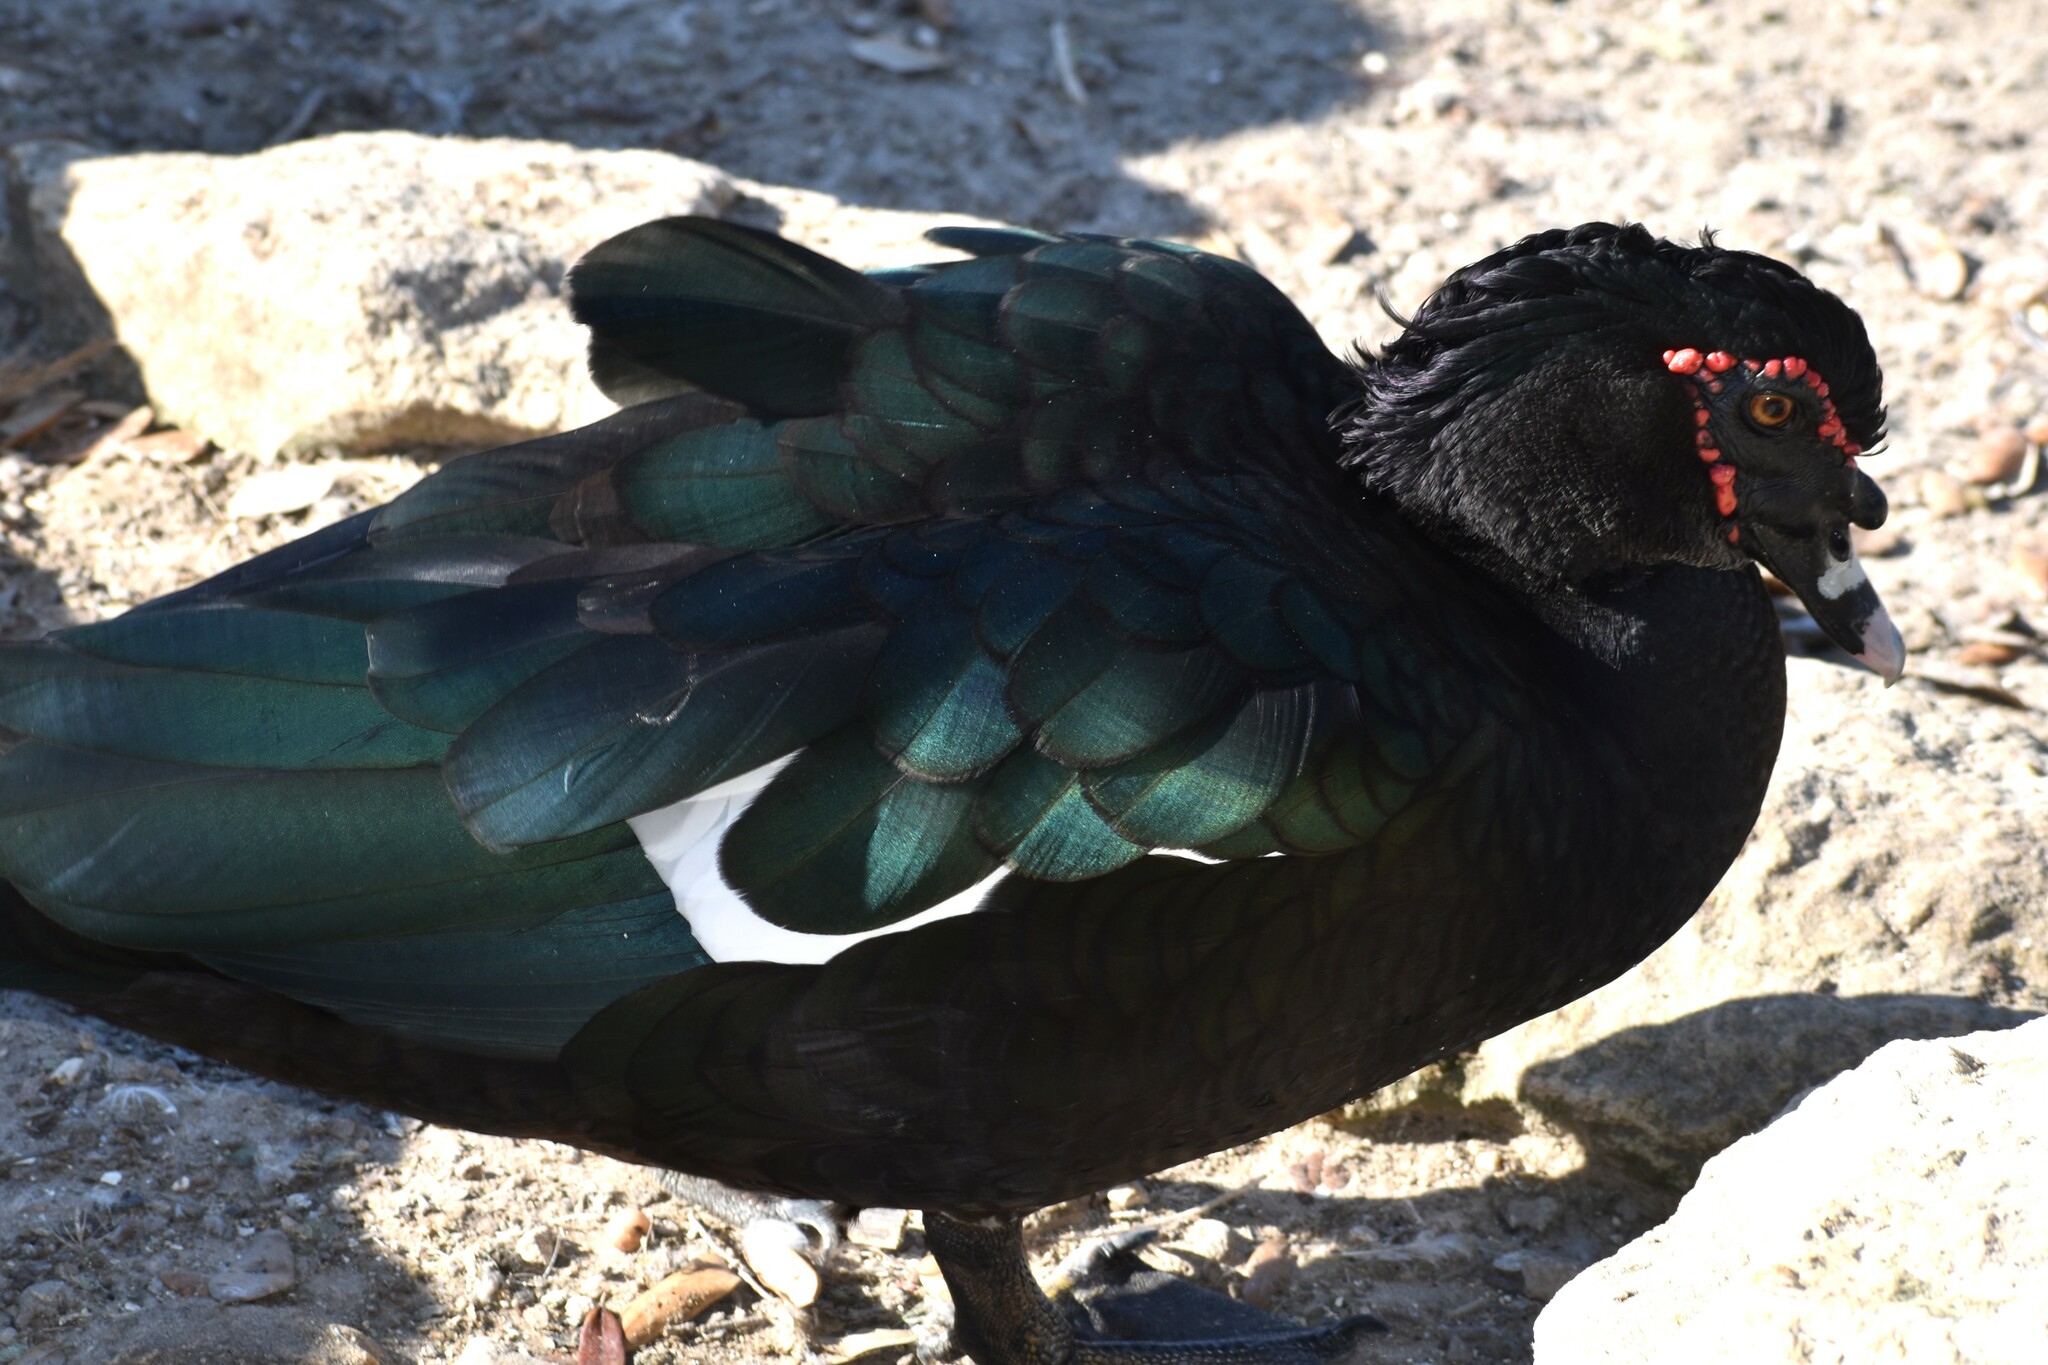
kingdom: Animalia
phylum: Chordata
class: Aves
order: Anseriformes
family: Anatidae
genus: Cairina
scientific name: Cairina moschata
